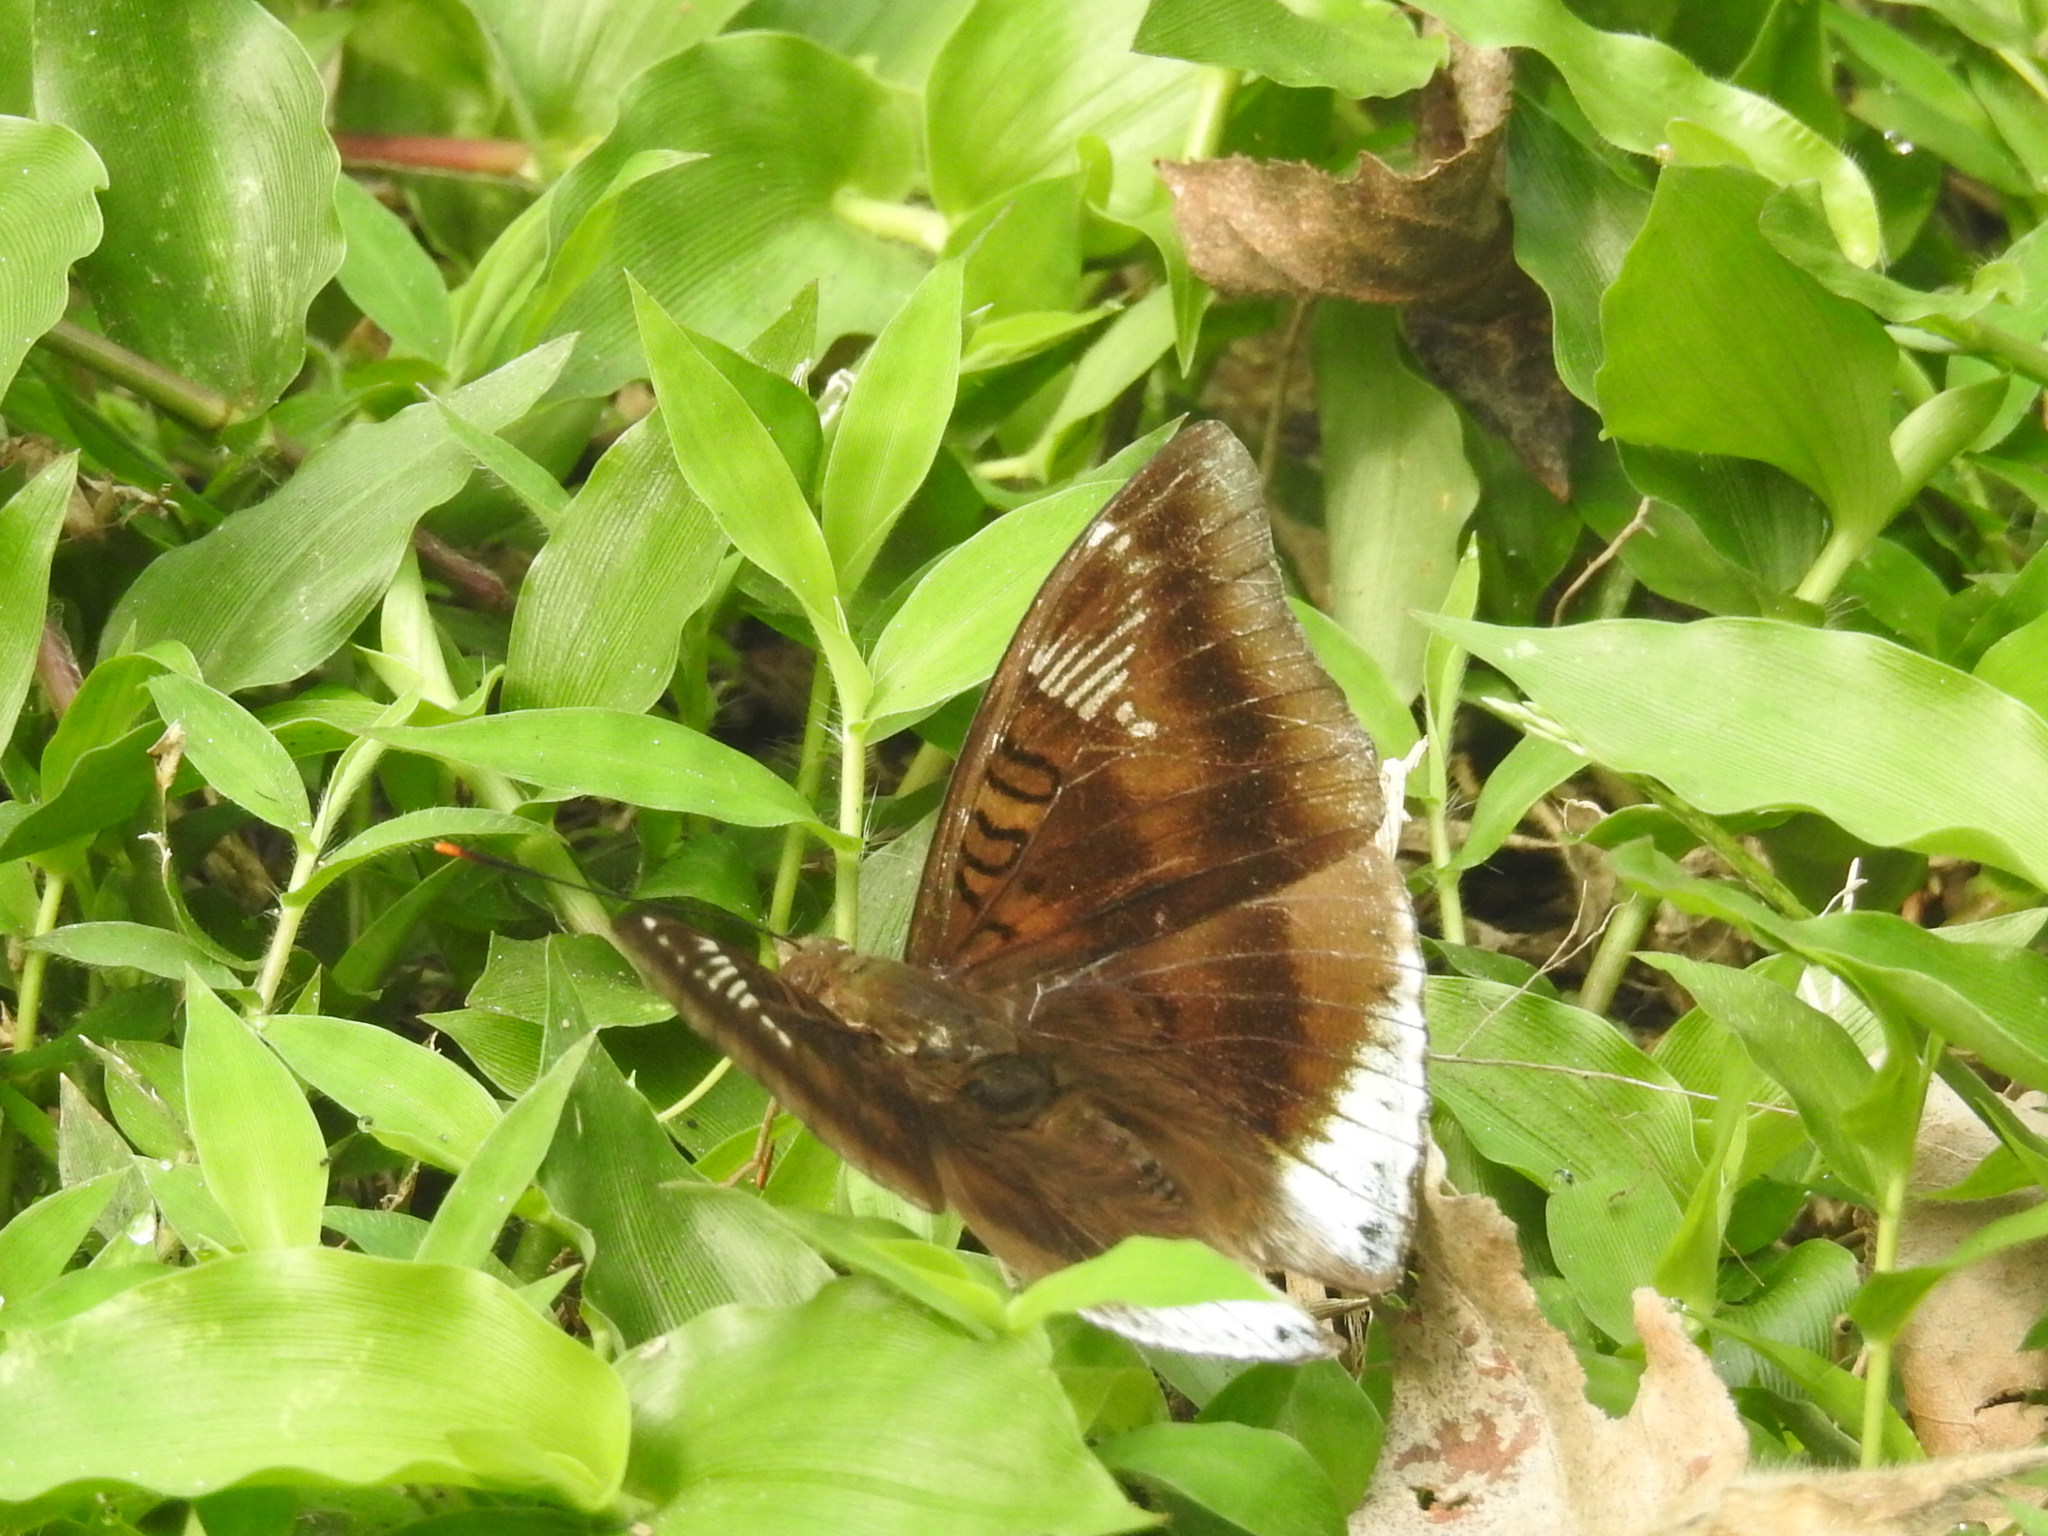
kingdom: Animalia
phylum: Arthropoda
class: Insecta
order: Lepidoptera
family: Nymphalidae
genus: Euthalia
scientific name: Euthalia phemius
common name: White-edged blue baron
